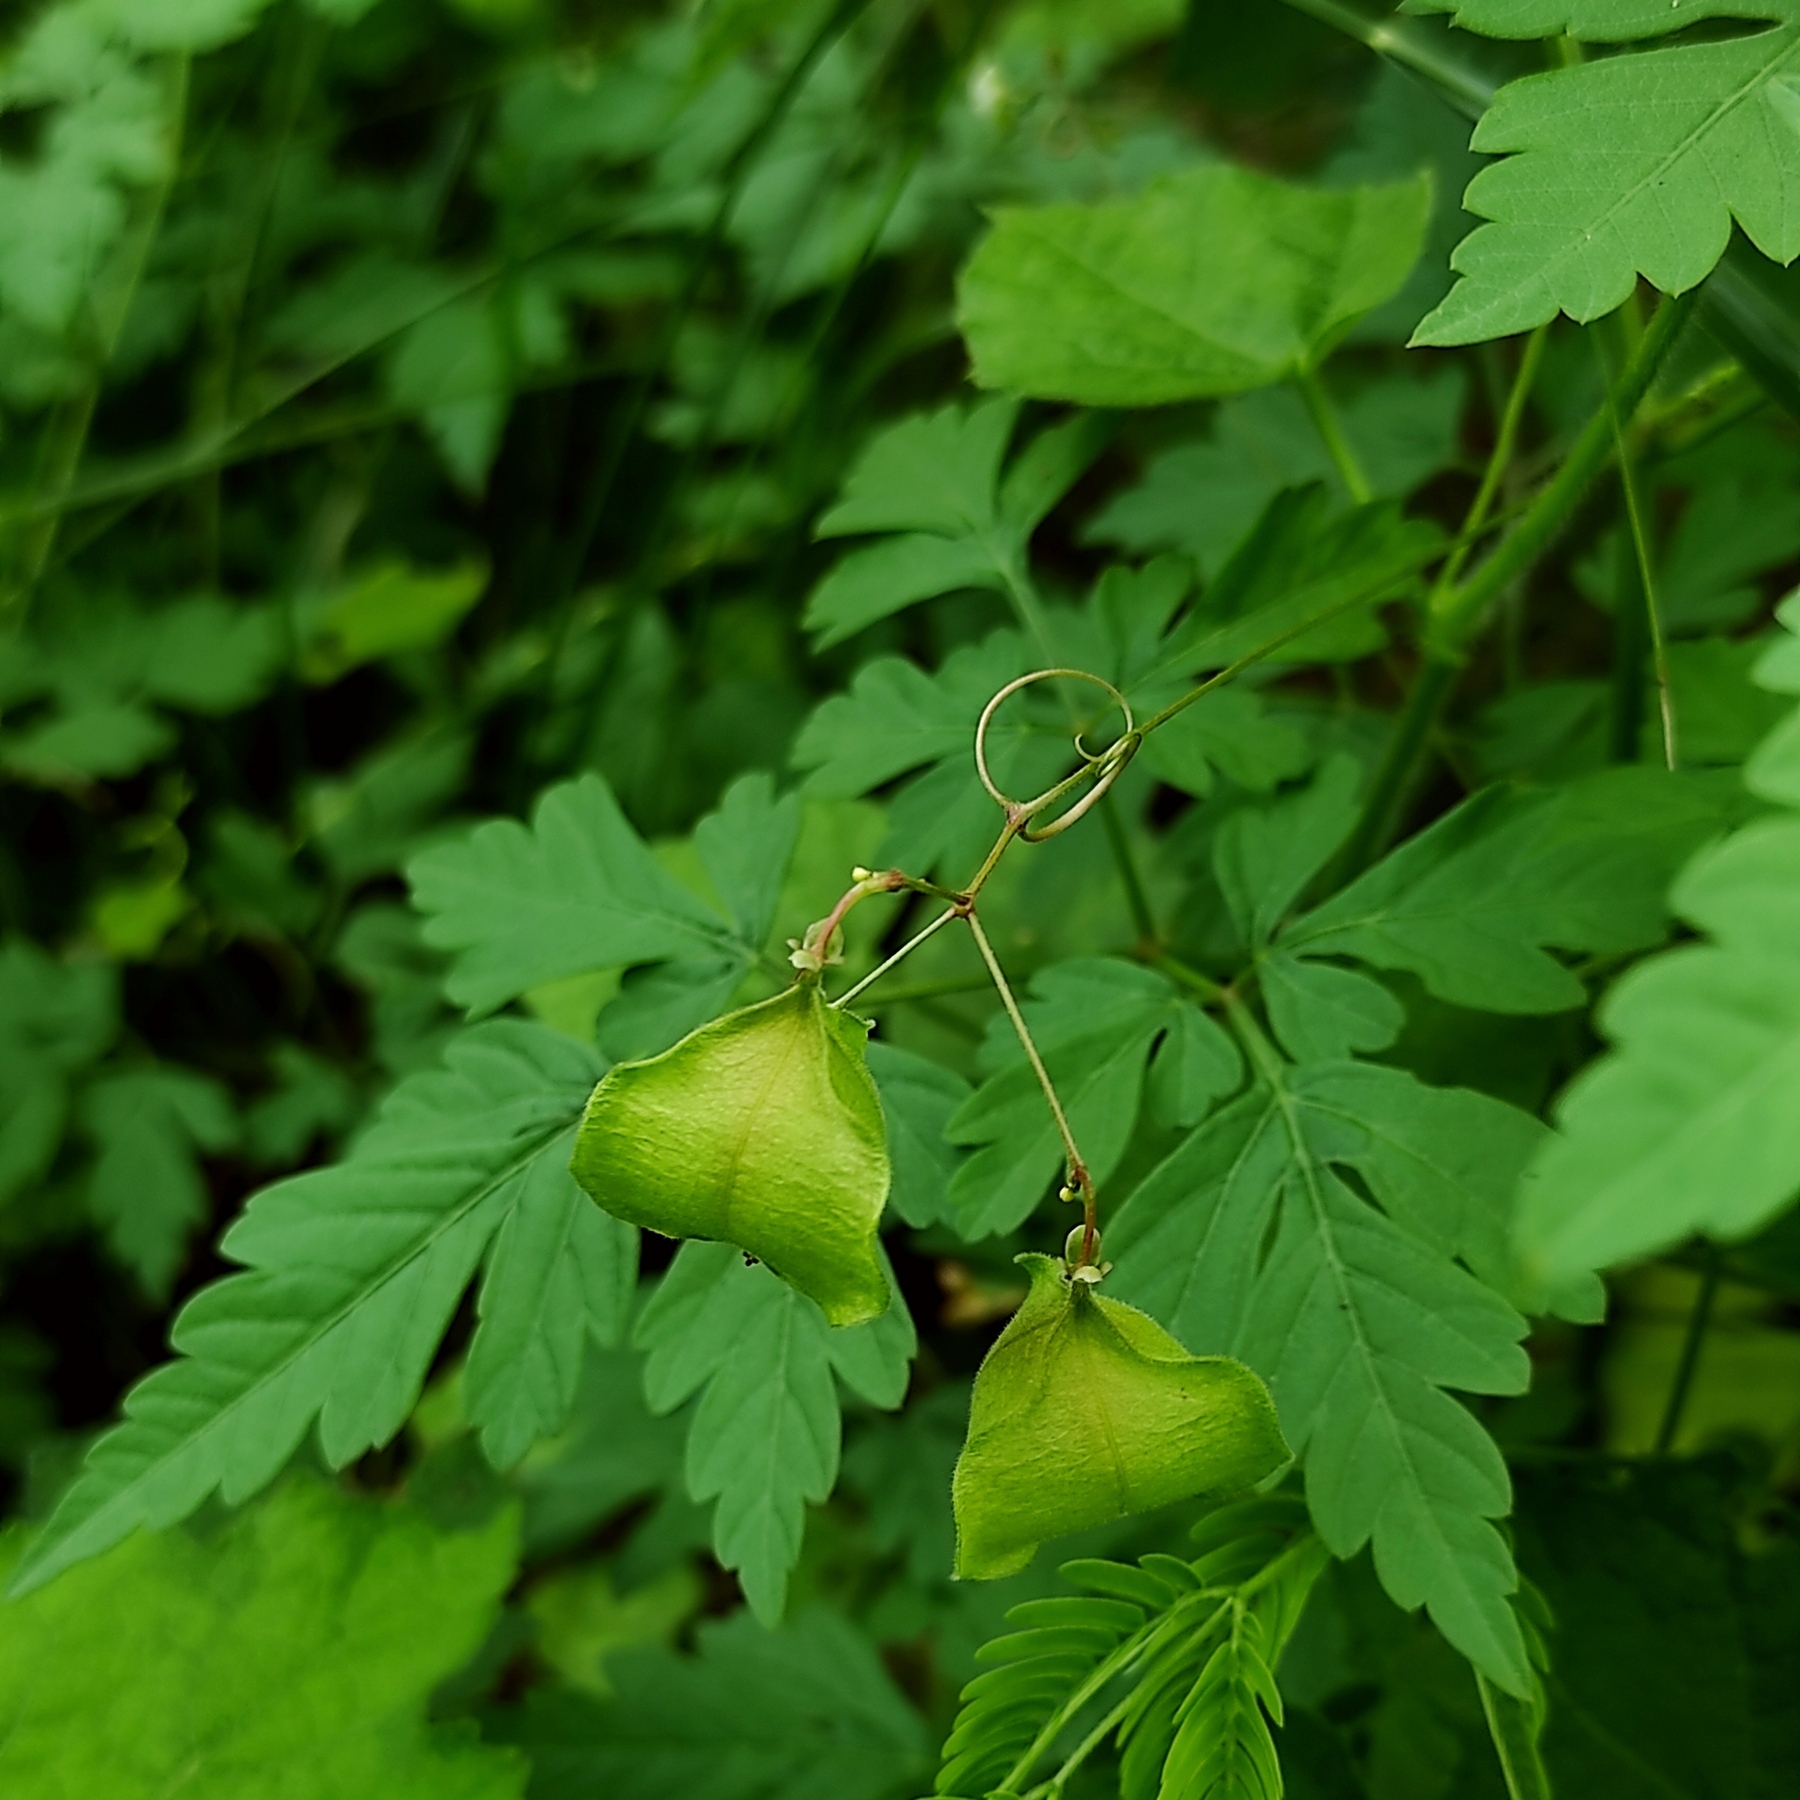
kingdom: Plantae
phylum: Tracheophyta
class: Magnoliopsida
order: Sapindales
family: Sapindaceae
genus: Cardiospermum
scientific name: Cardiospermum halicacabum
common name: Balloon vine
